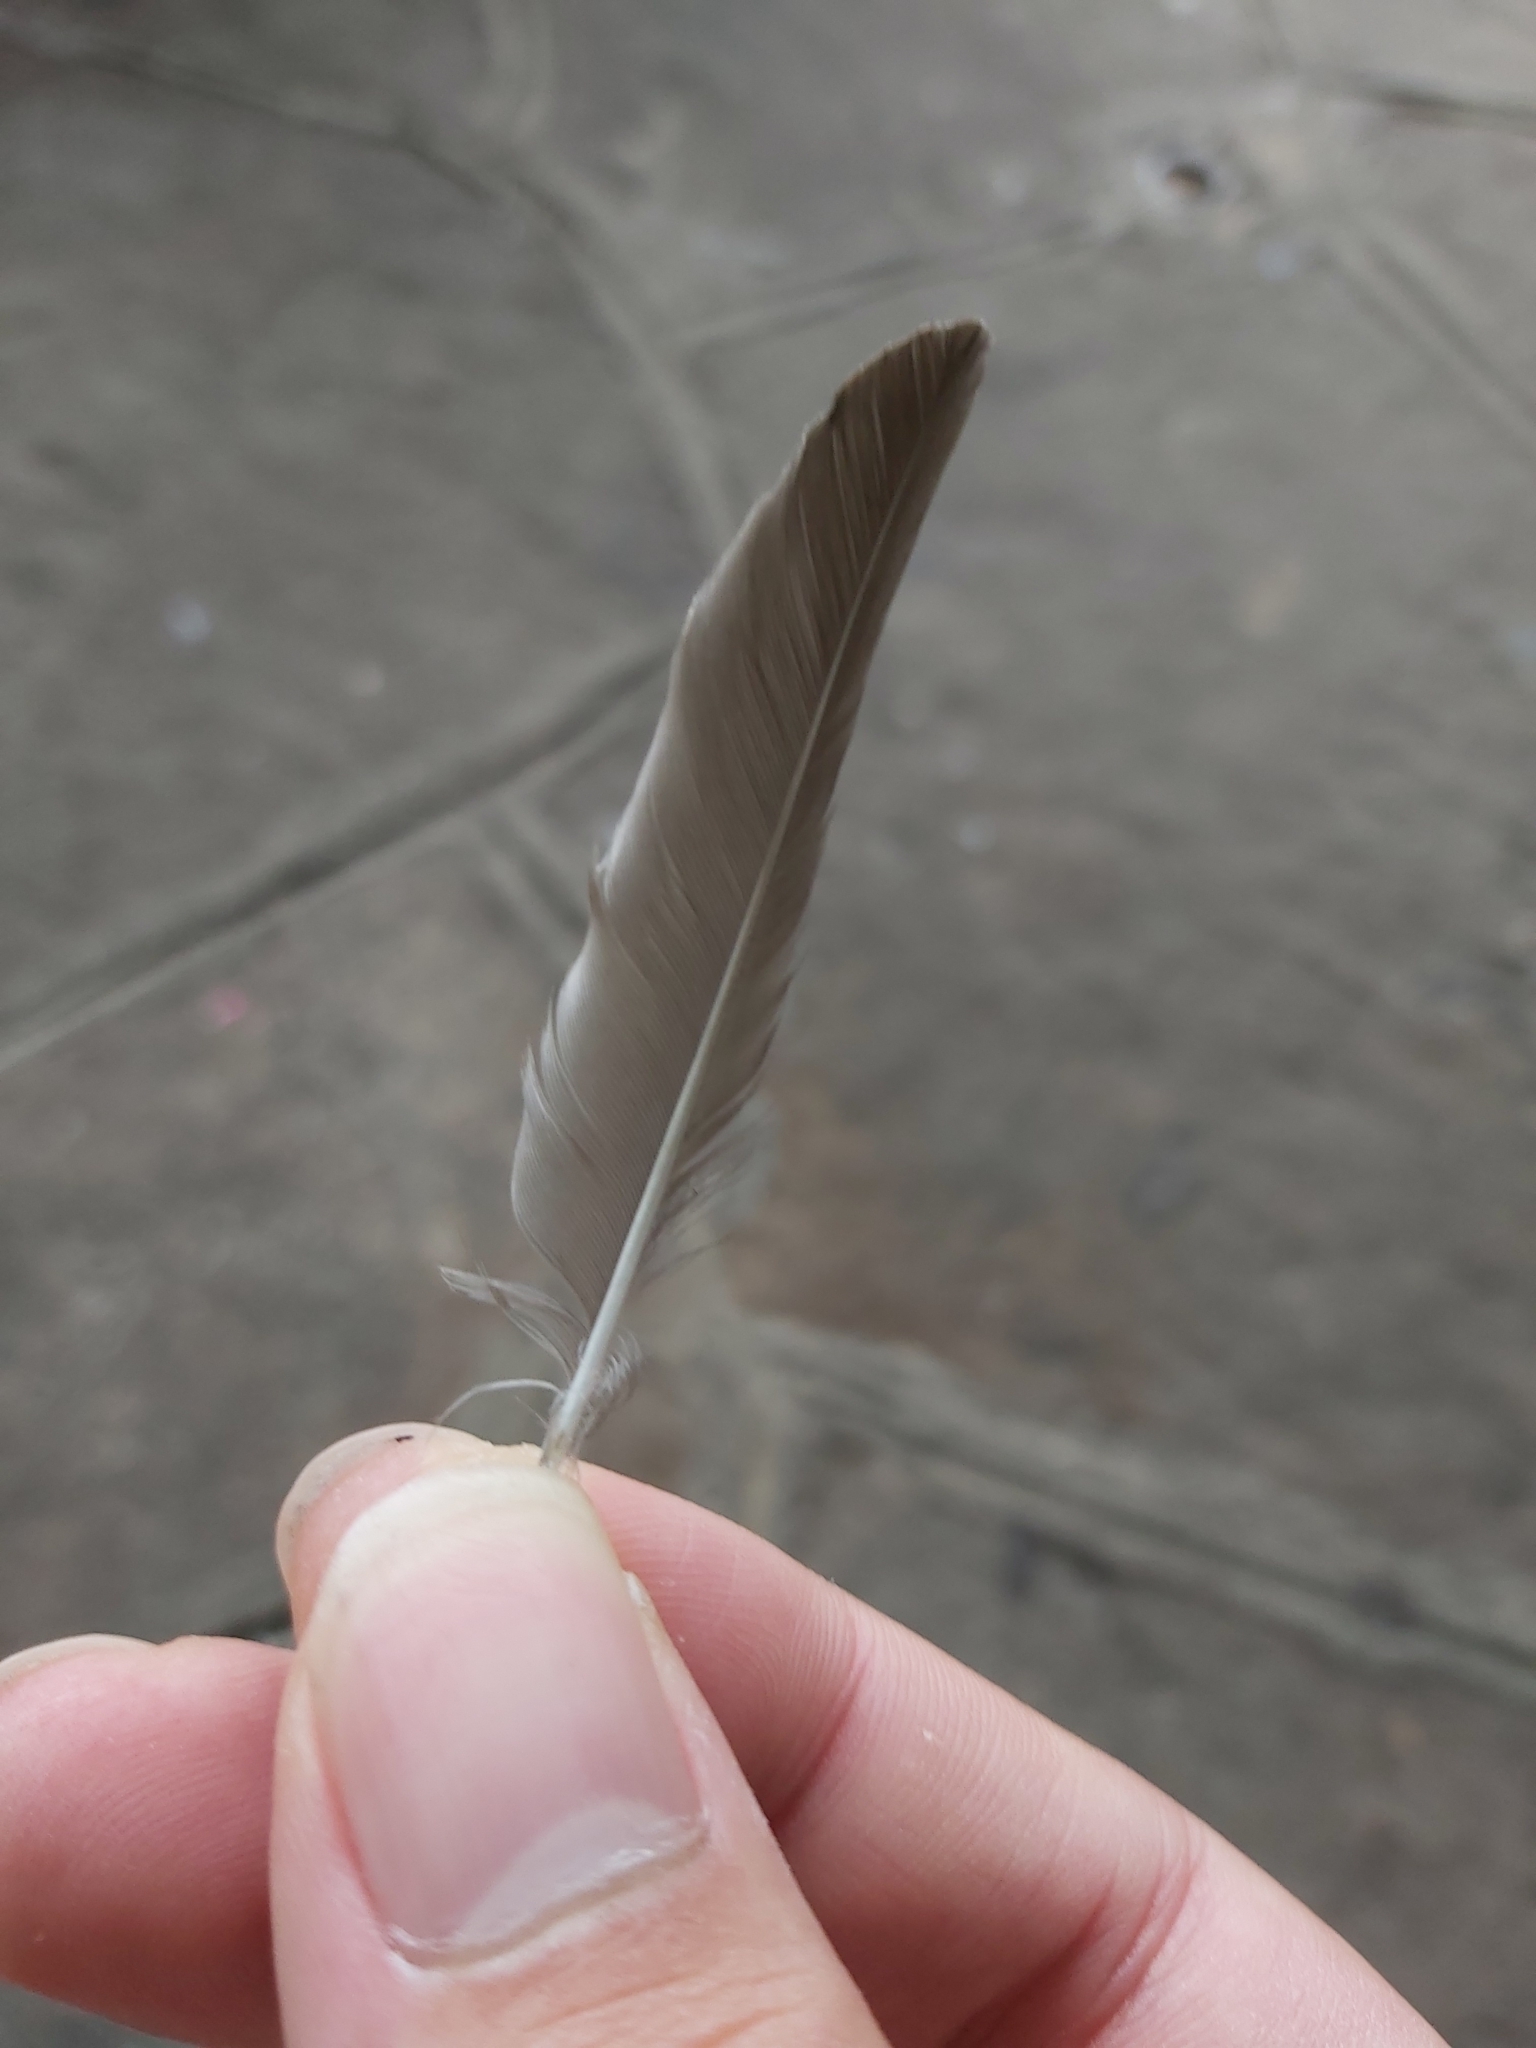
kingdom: Animalia
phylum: Chordata
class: Aves
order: Passeriformes
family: Hirundinidae
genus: Hirundo
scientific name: Hirundo neoxena
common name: Welcome swallow
